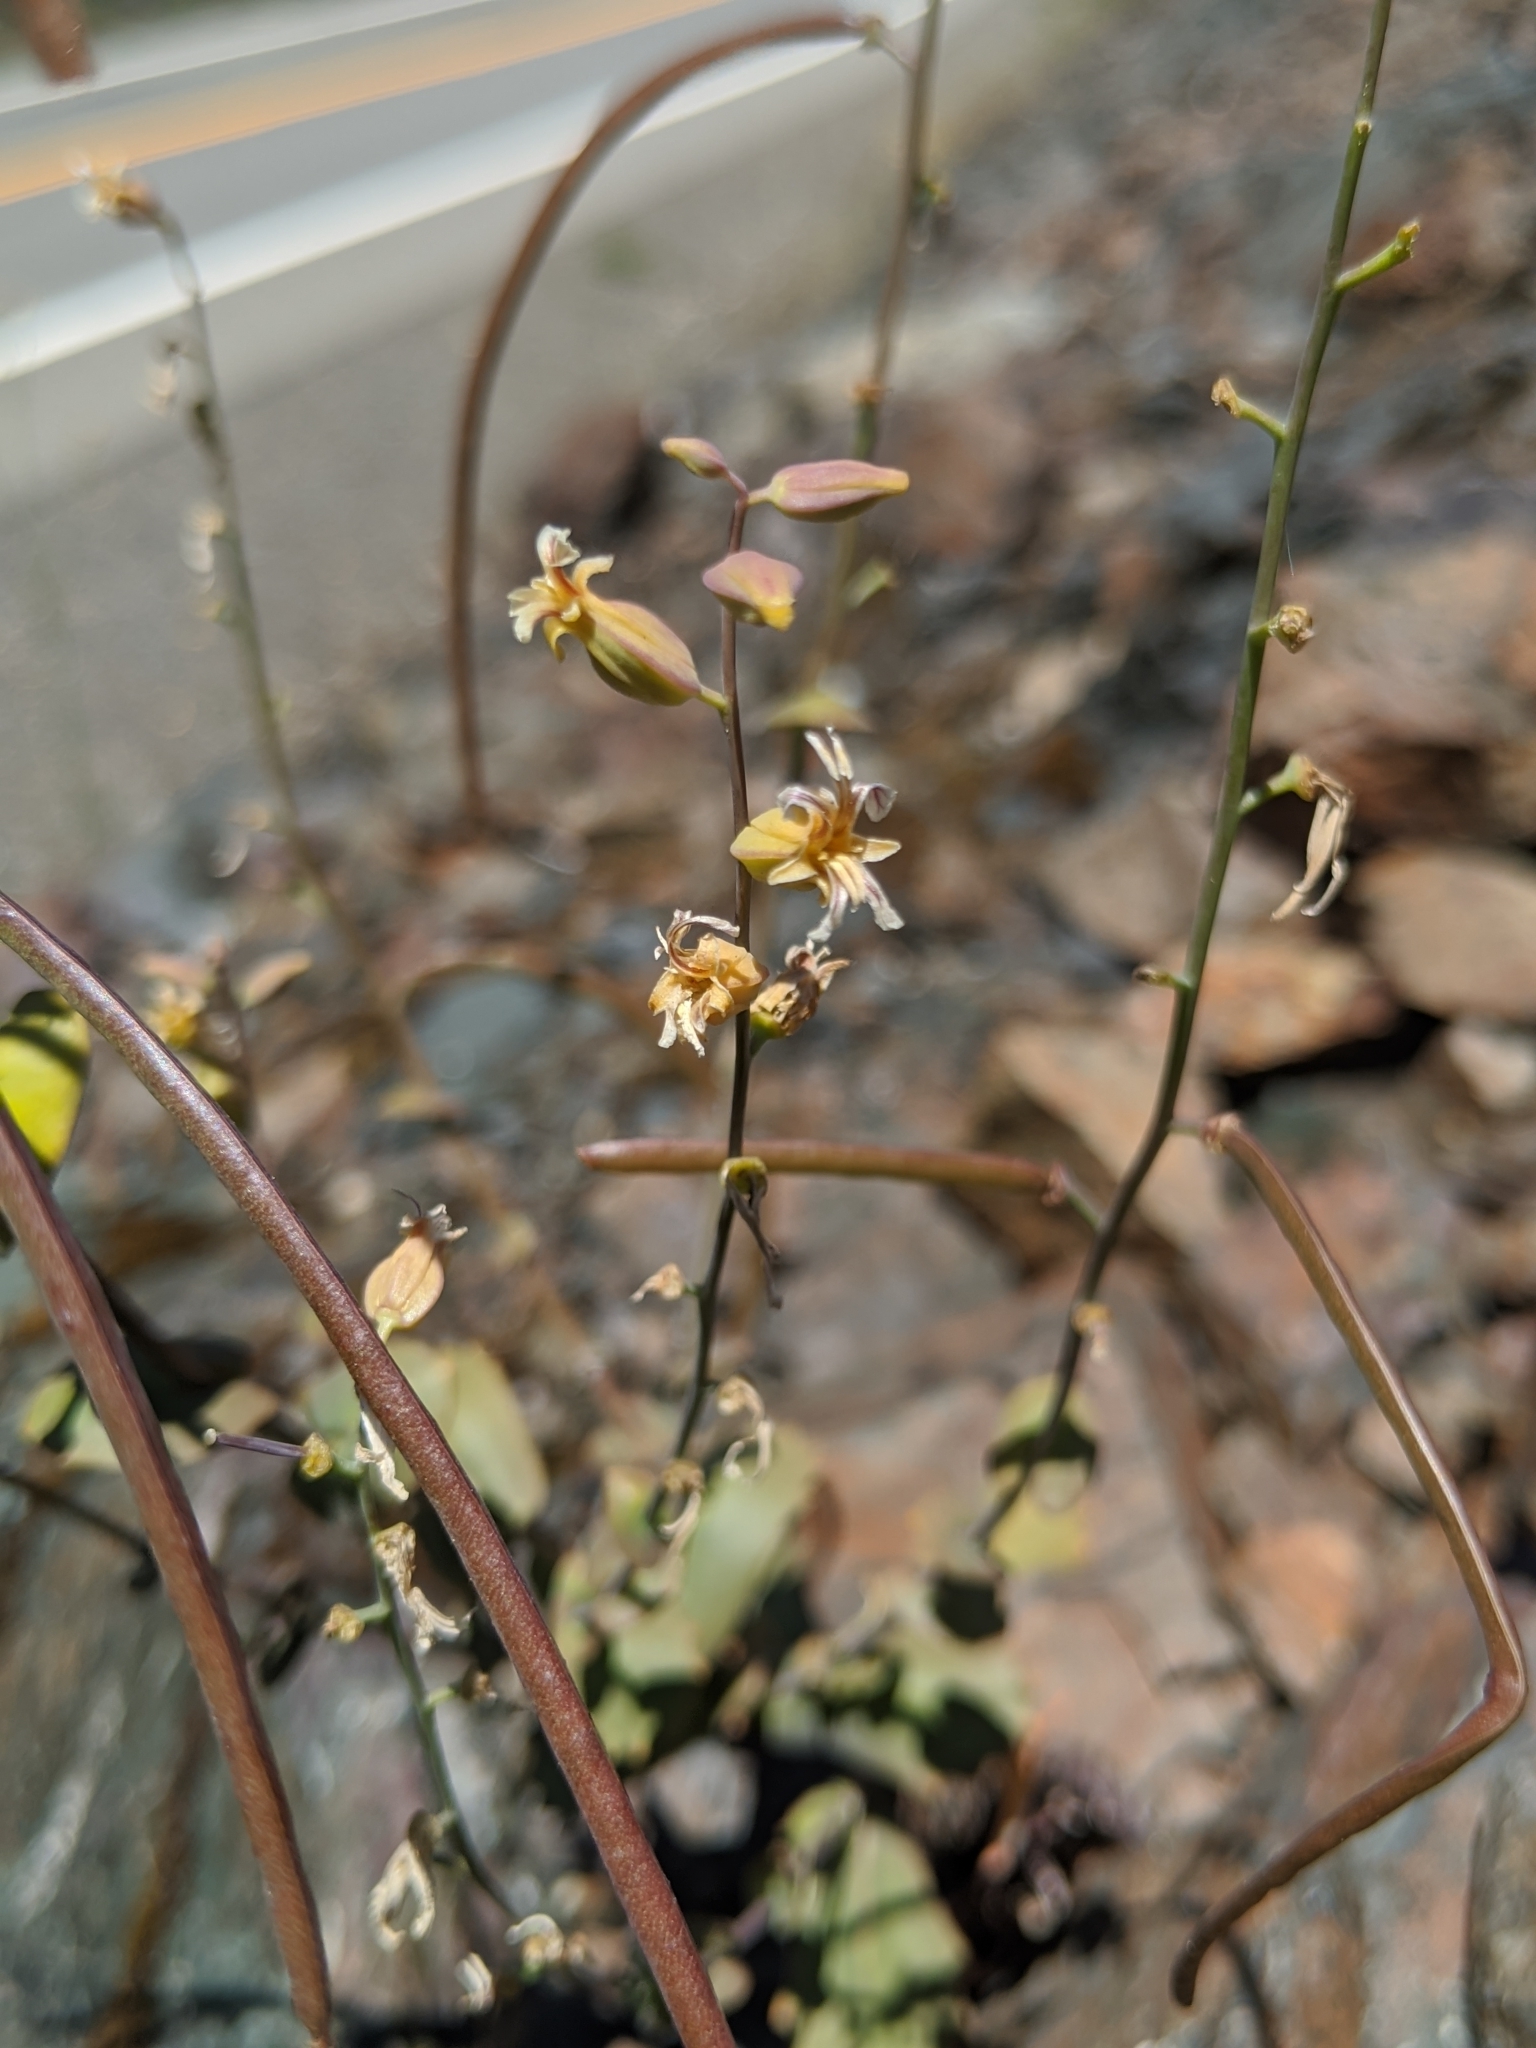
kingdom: Plantae
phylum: Tracheophyta
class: Magnoliopsida
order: Brassicales
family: Brassicaceae
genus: Streptanthus
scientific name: Streptanthus tortuosus
